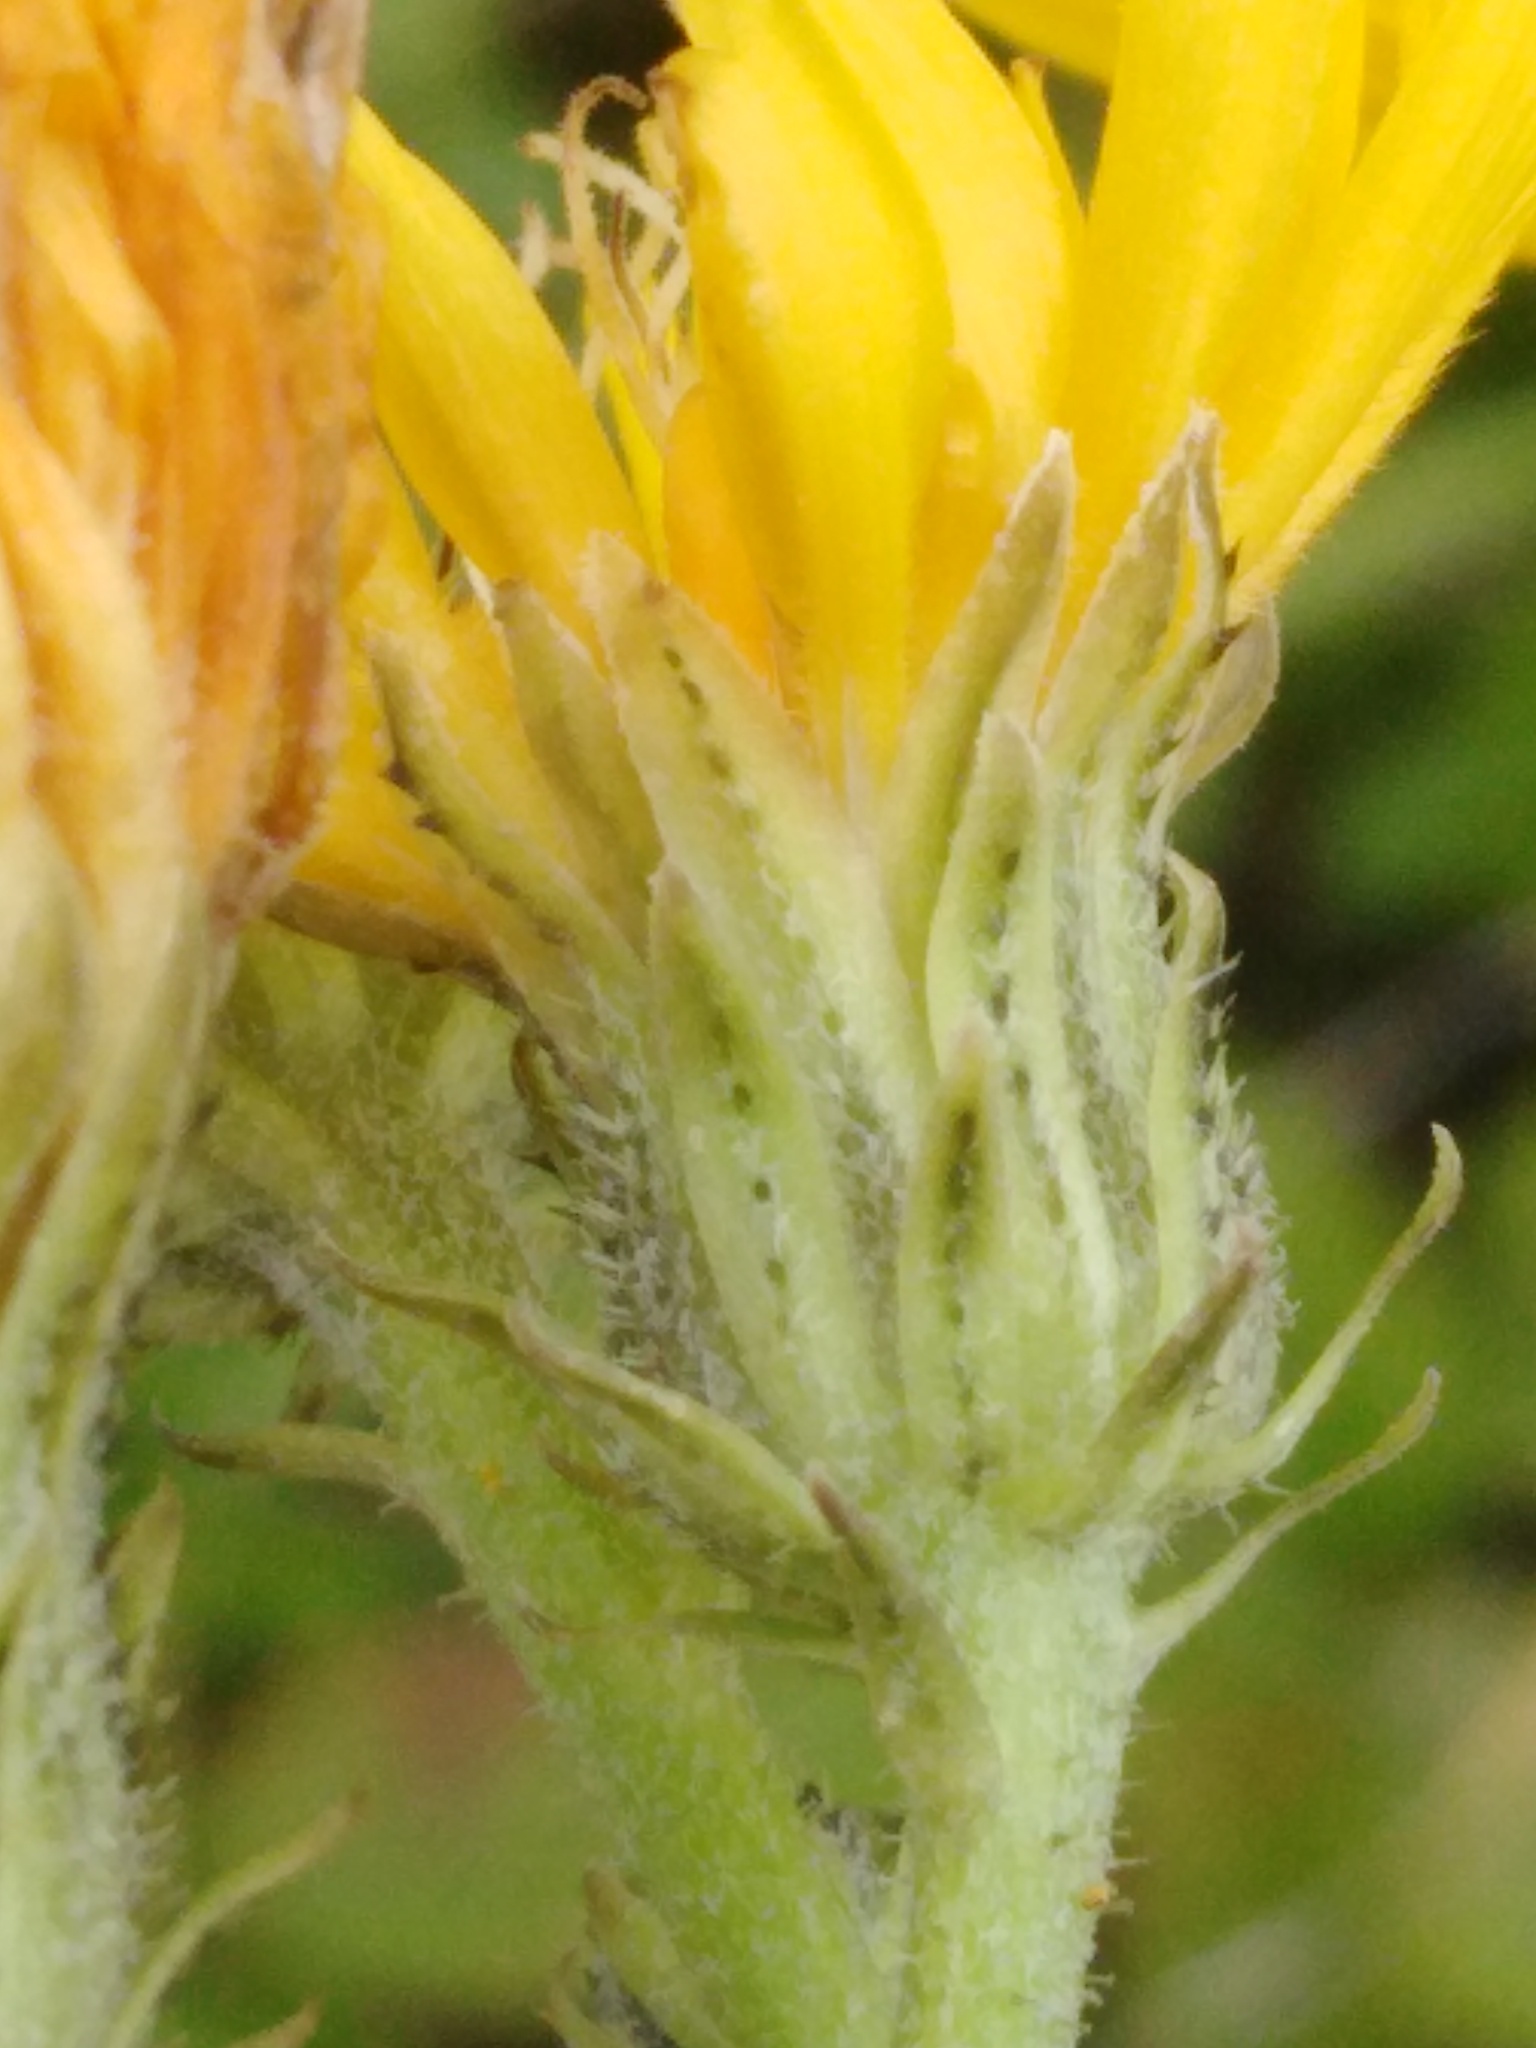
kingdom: Plantae
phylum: Tracheophyta
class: Magnoliopsida
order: Asterales
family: Asteraceae
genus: Picris
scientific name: Picris hieracioides
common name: Hawkweed oxtongue
